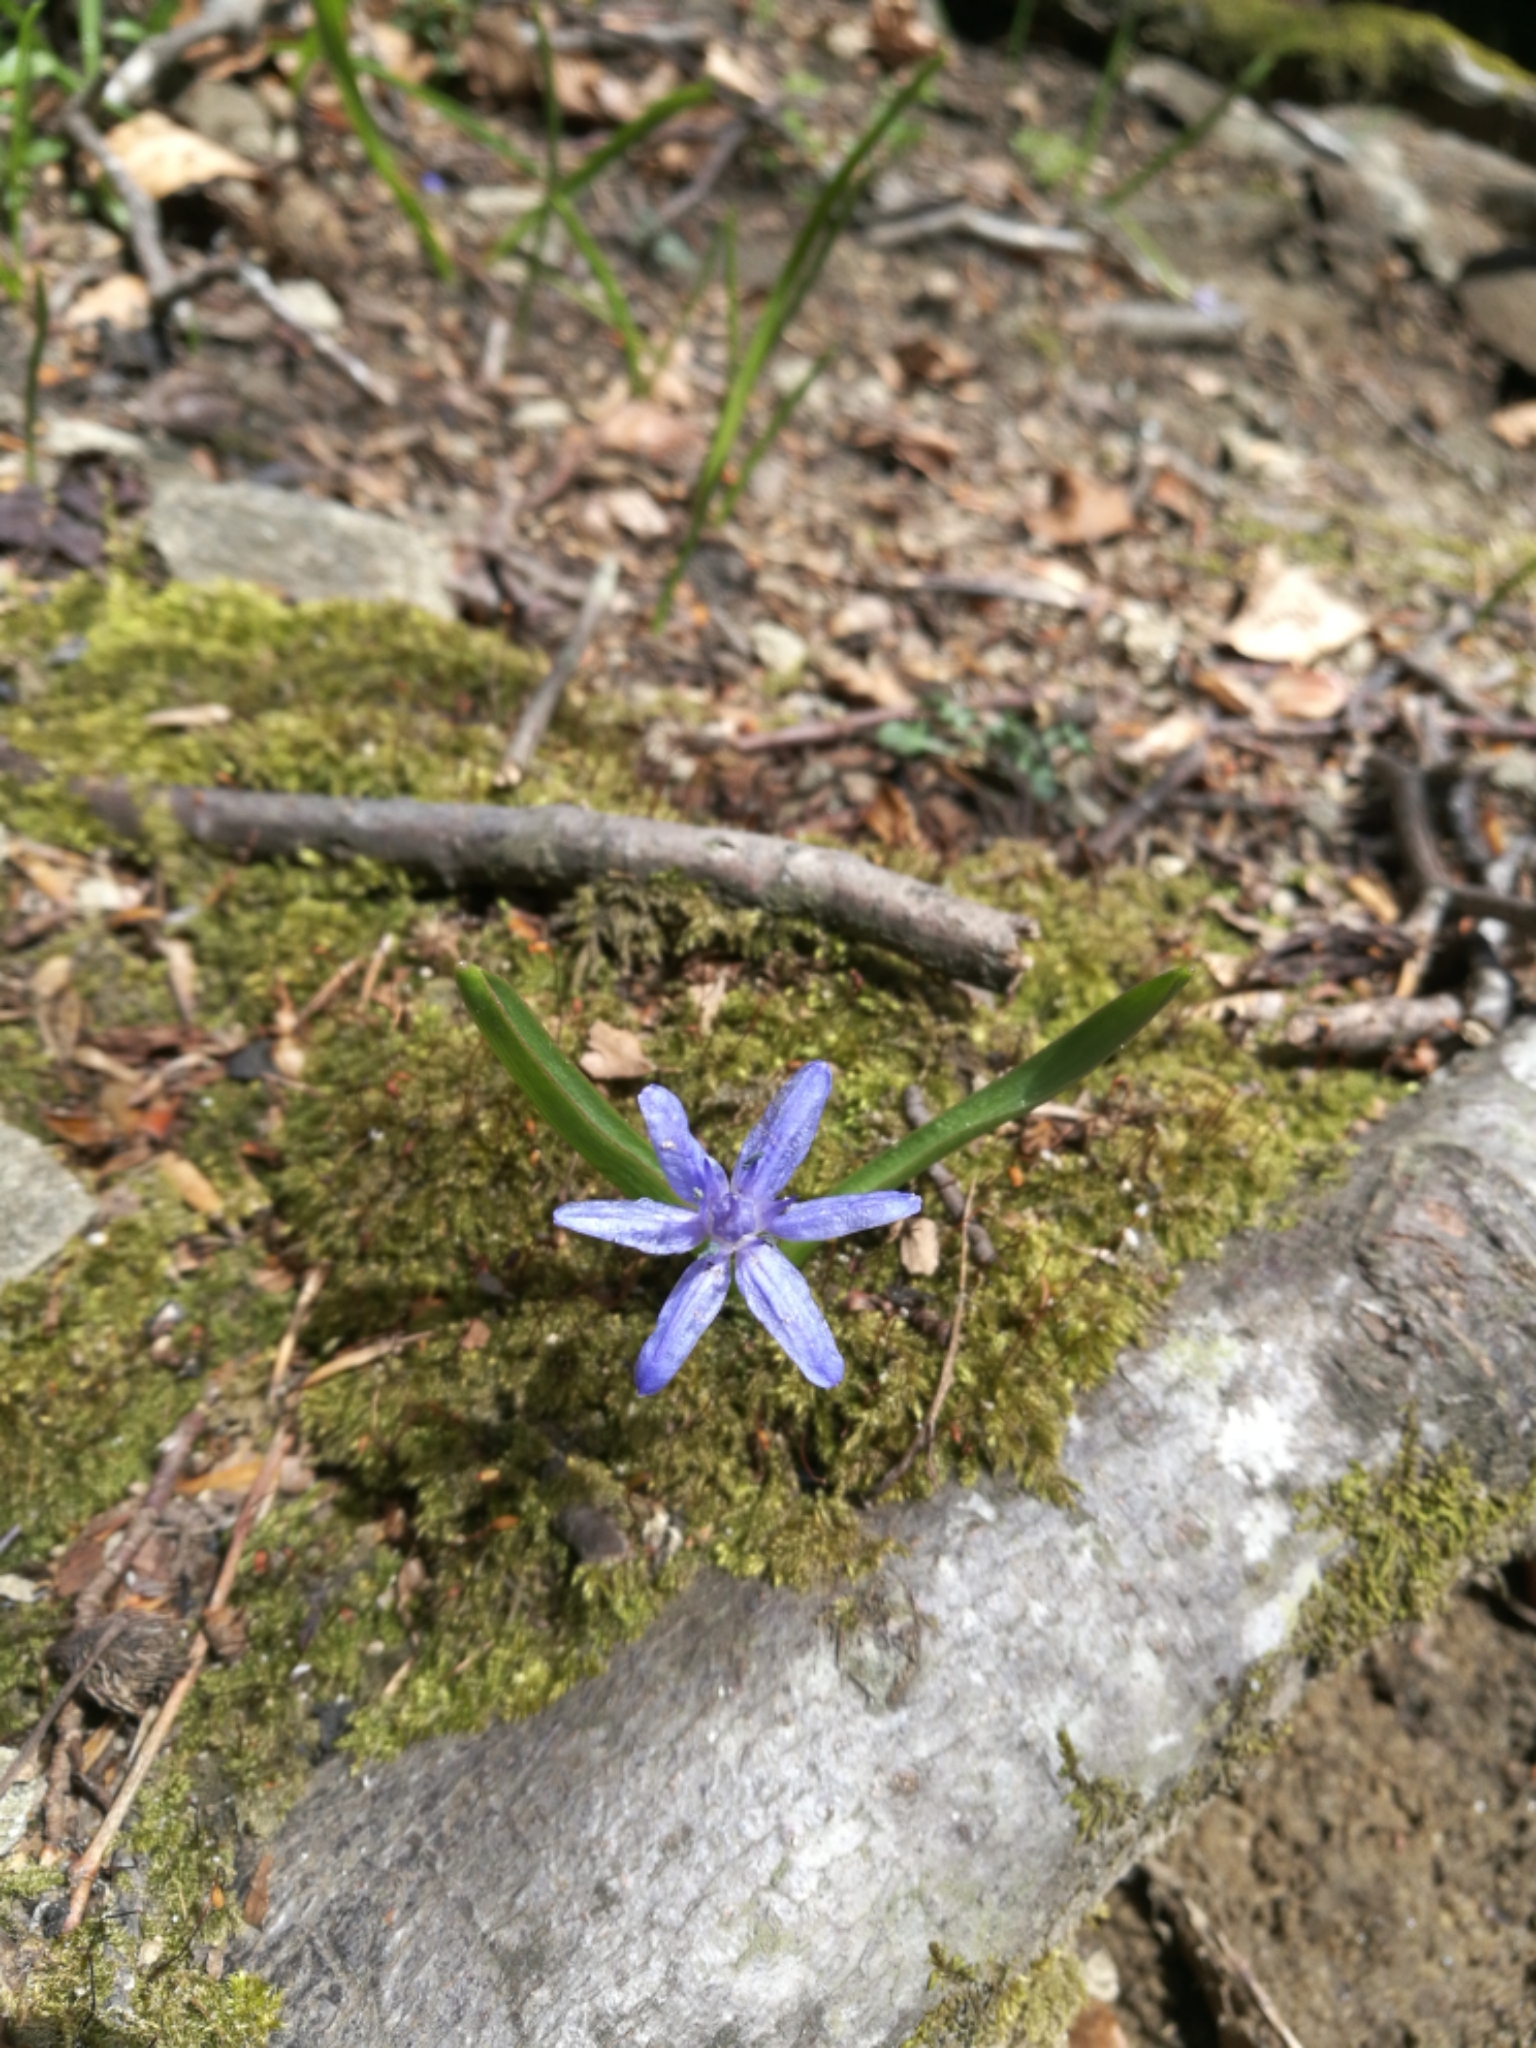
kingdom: Plantae
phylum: Tracheophyta
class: Liliopsida
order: Asparagales
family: Asparagaceae
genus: Scilla
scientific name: Scilla bifolia
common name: Alpine squill
